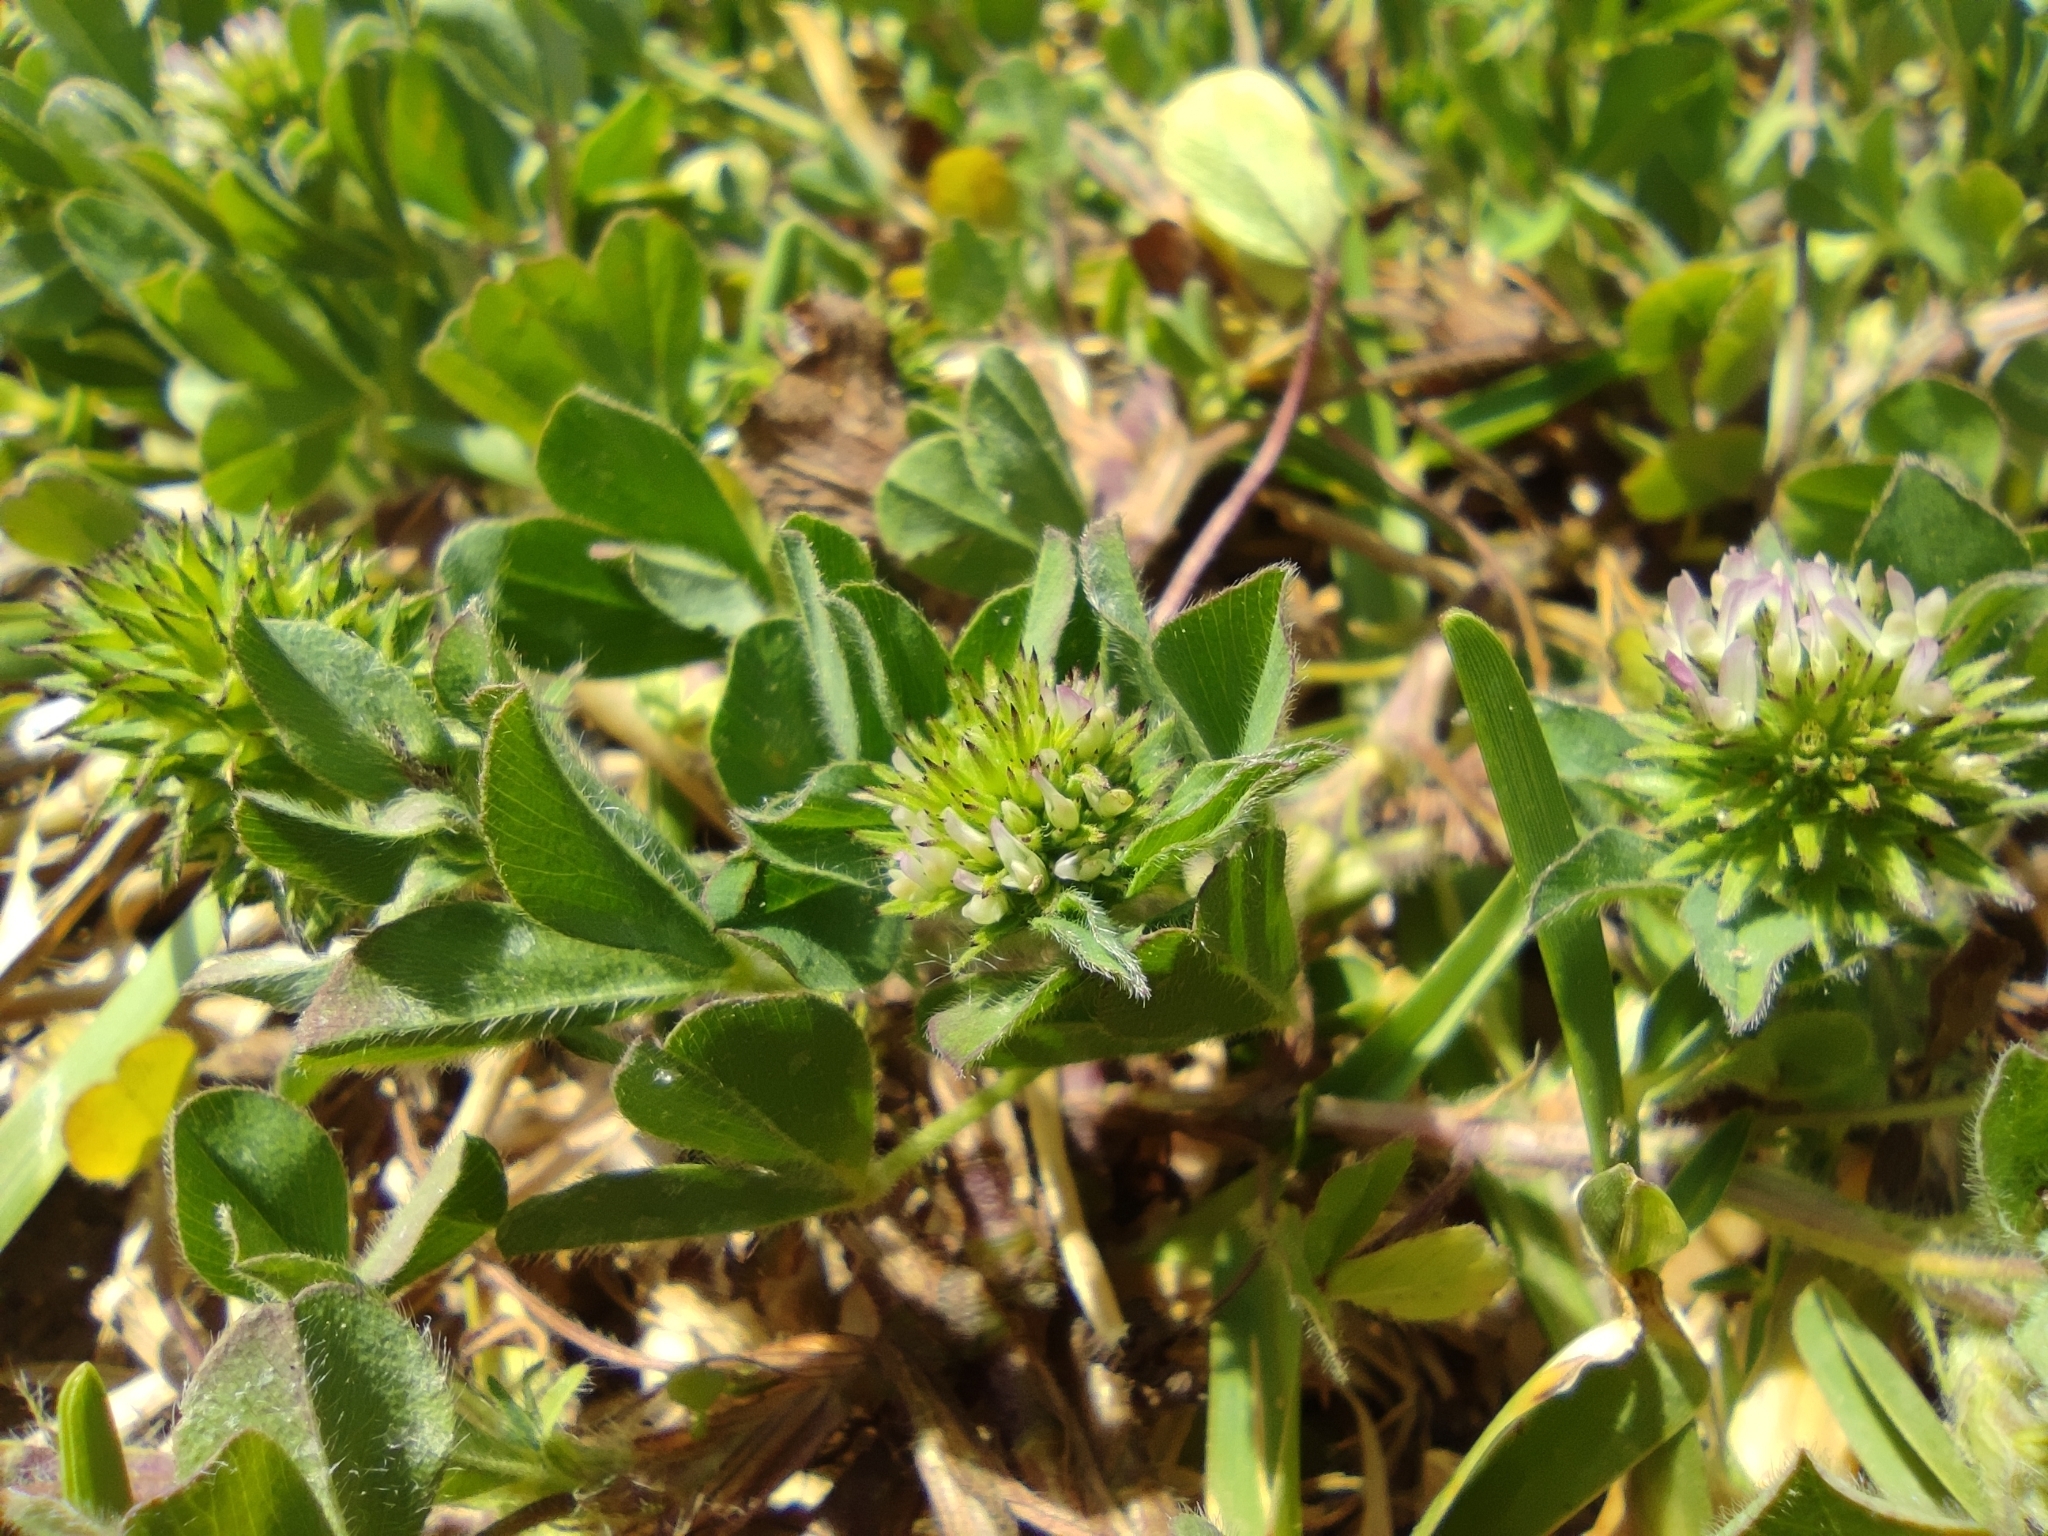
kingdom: Plantae
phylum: Tracheophyta
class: Magnoliopsida
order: Fabales
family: Fabaceae
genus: Trifolium
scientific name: Trifolium squamosum
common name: Sea clover
